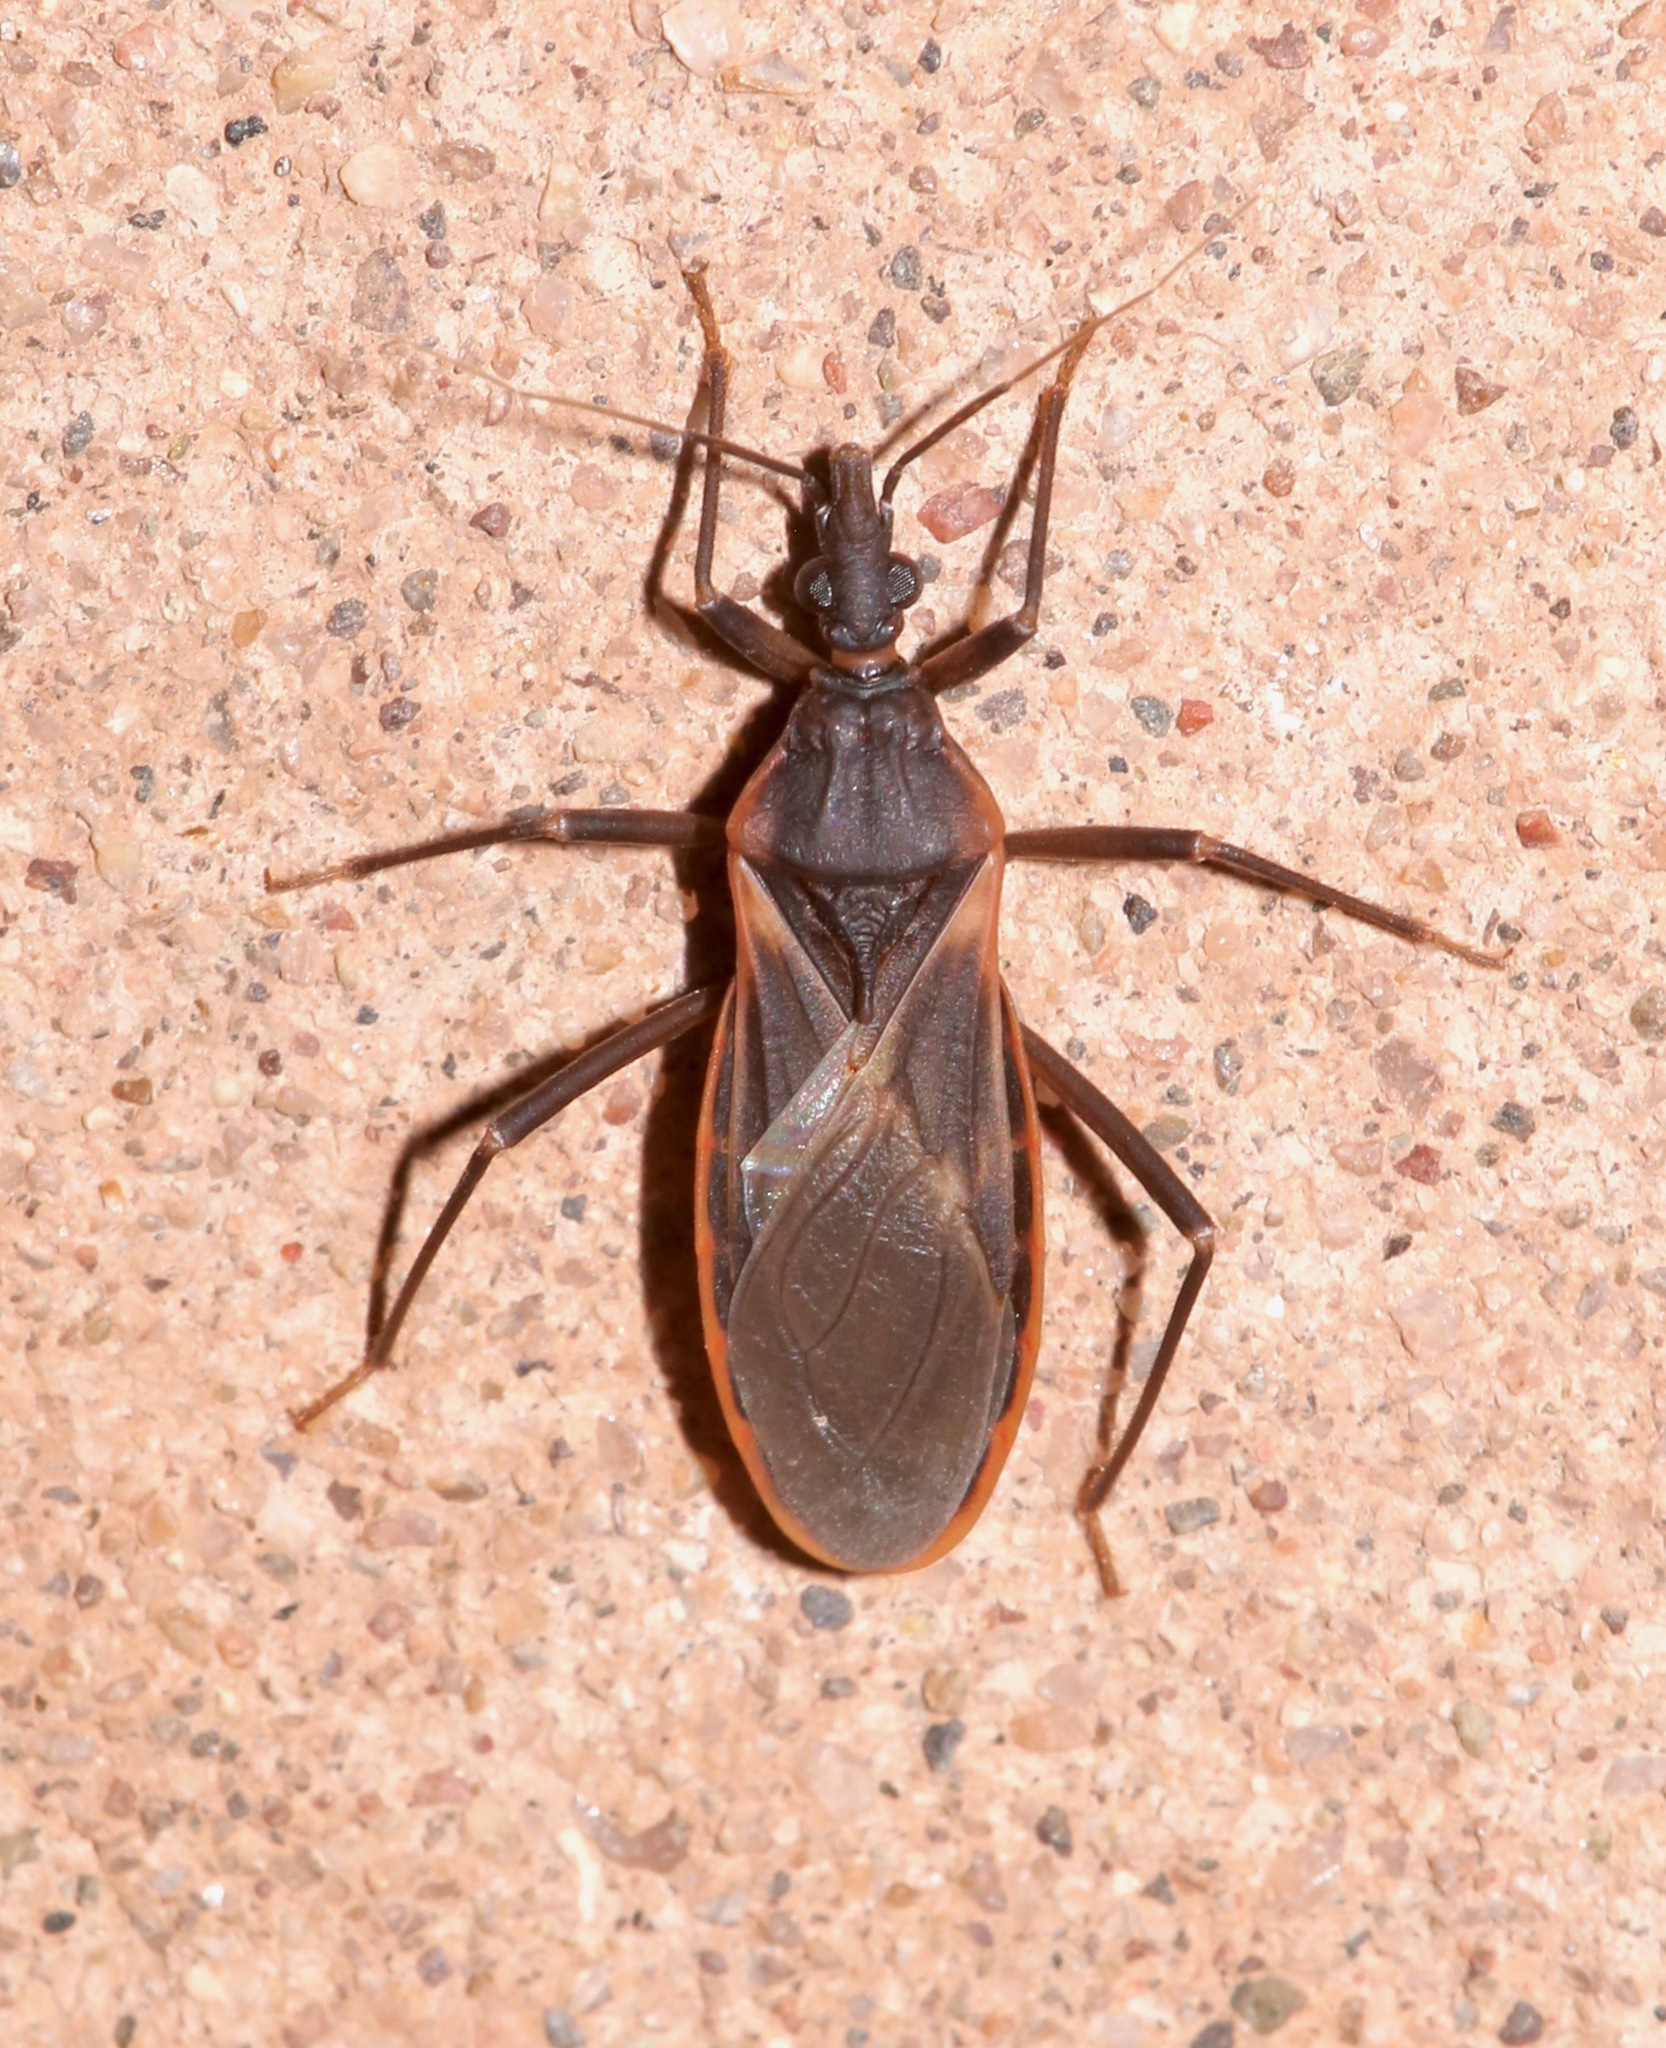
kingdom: Animalia
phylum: Arthropoda
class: Insecta
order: Hemiptera
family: Reduviidae
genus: Triatoma
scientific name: Triatoma rubida
